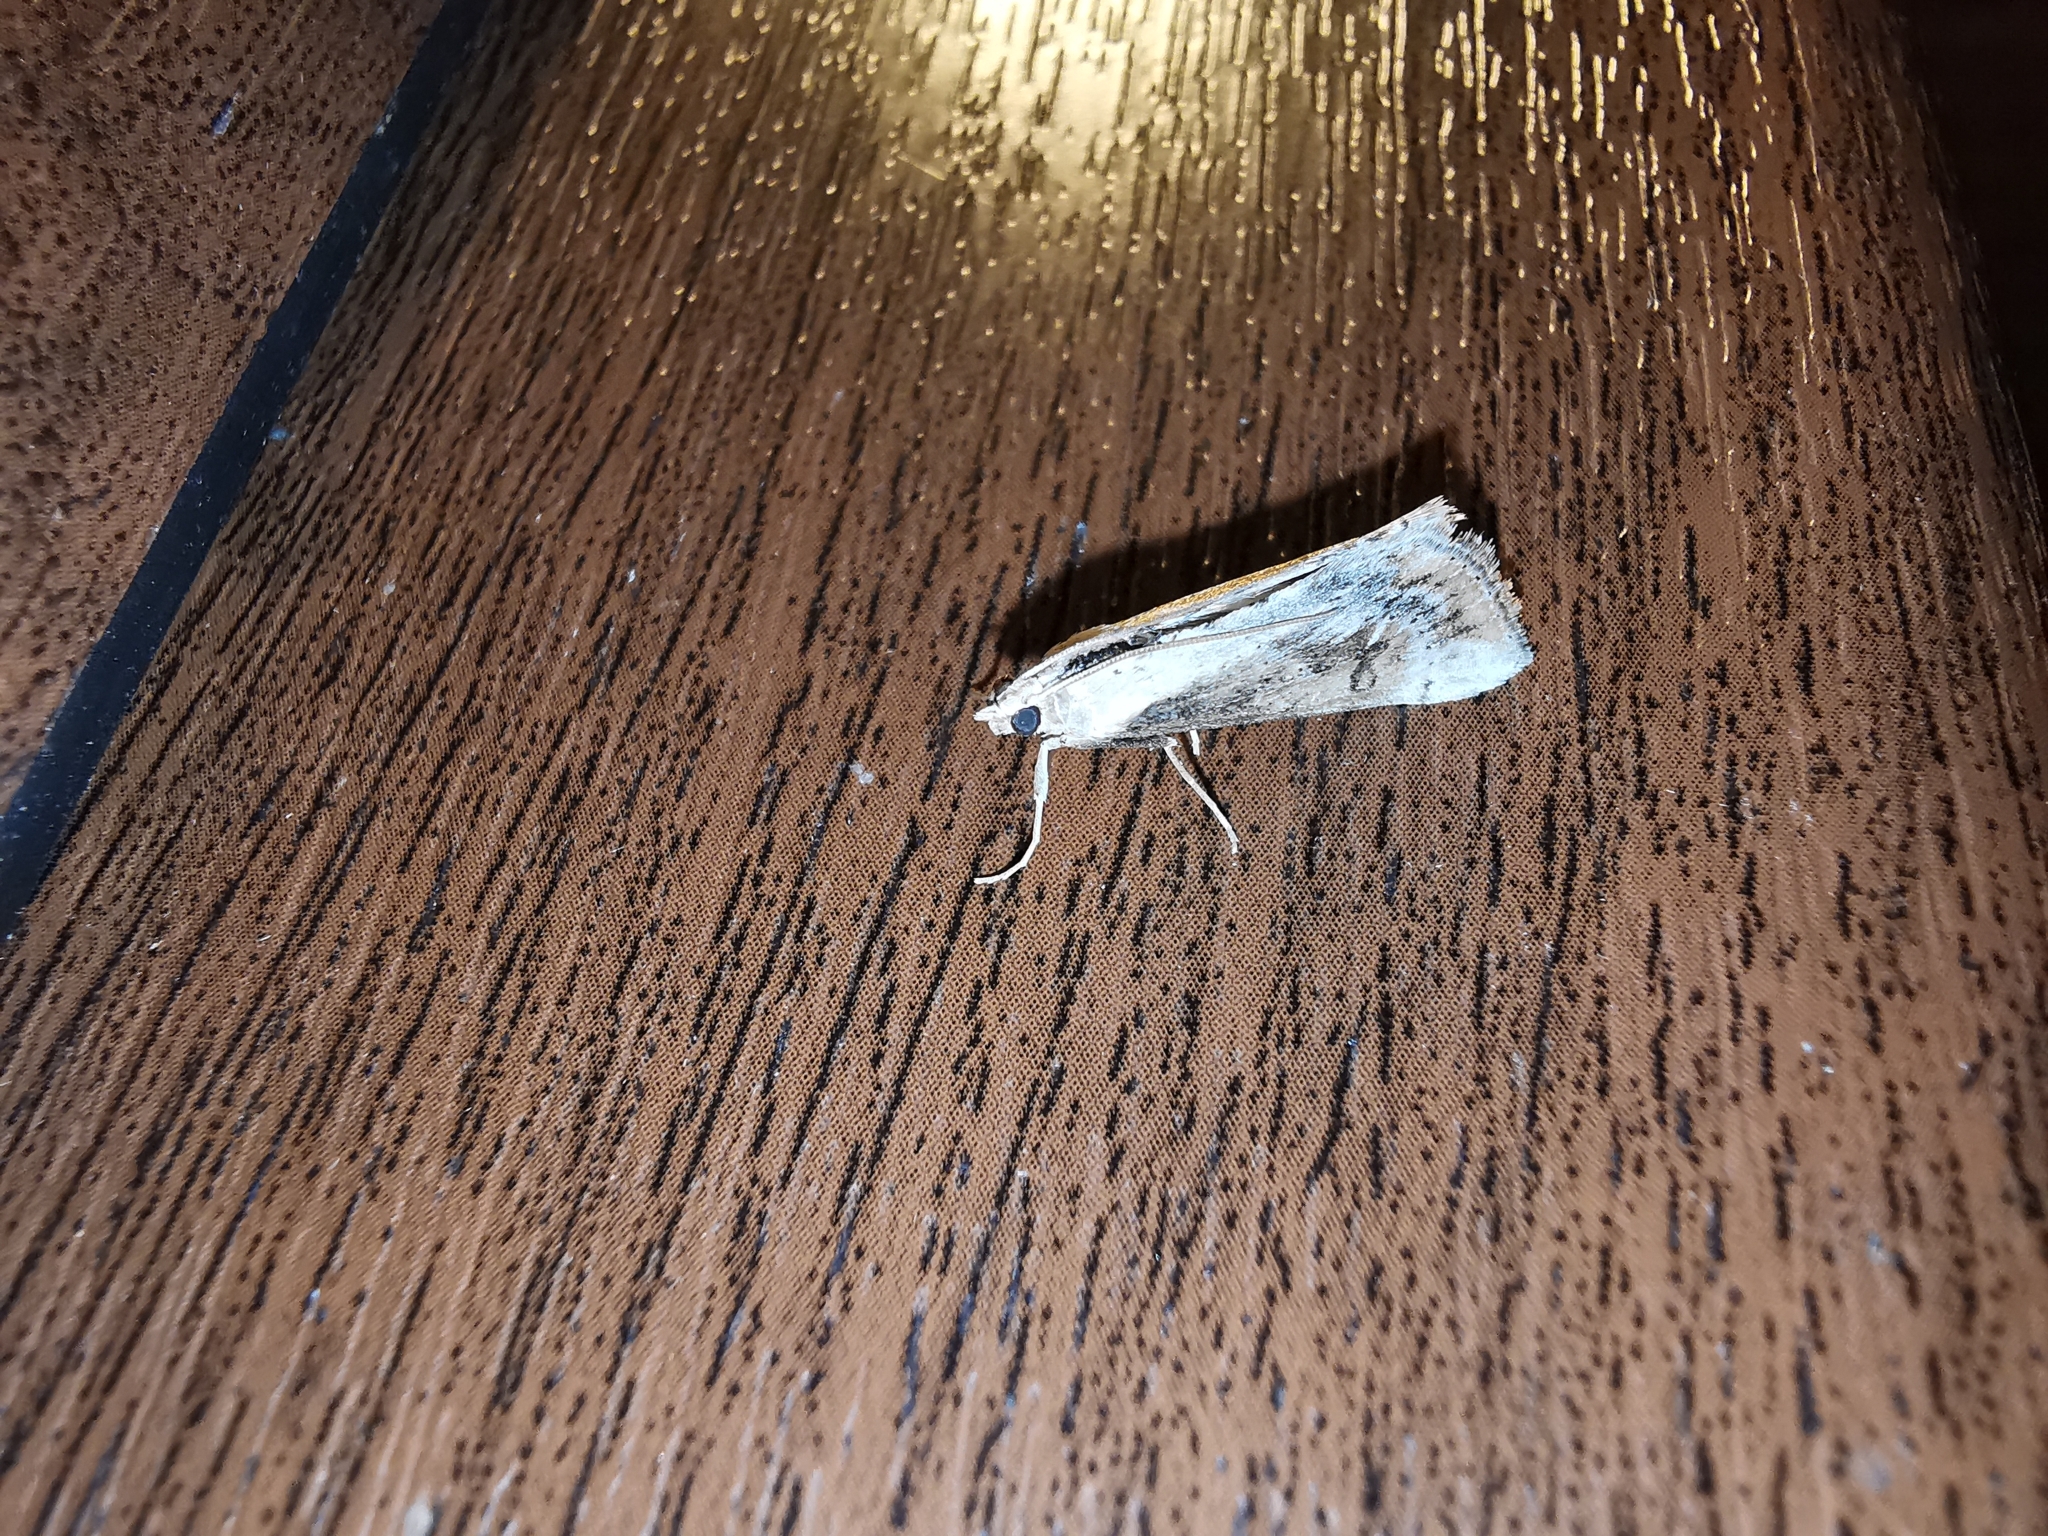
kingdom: Animalia
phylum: Arthropoda
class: Insecta
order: Lepidoptera
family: Crambidae
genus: Evergestis
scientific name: Evergestis isatidalis
